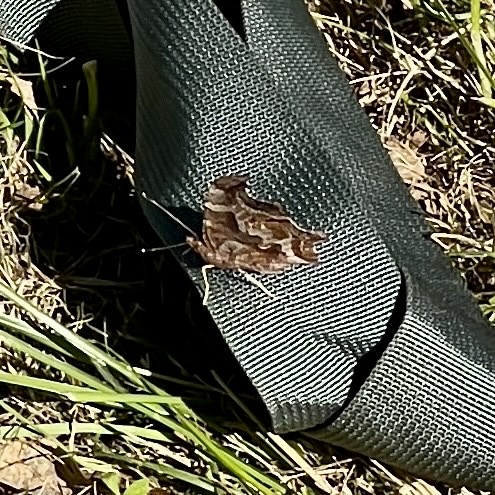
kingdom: Animalia
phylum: Arthropoda
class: Insecta
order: Lepidoptera
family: Nymphalidae
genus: Polygonia
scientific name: Polygonia comma
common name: Eastern comma
